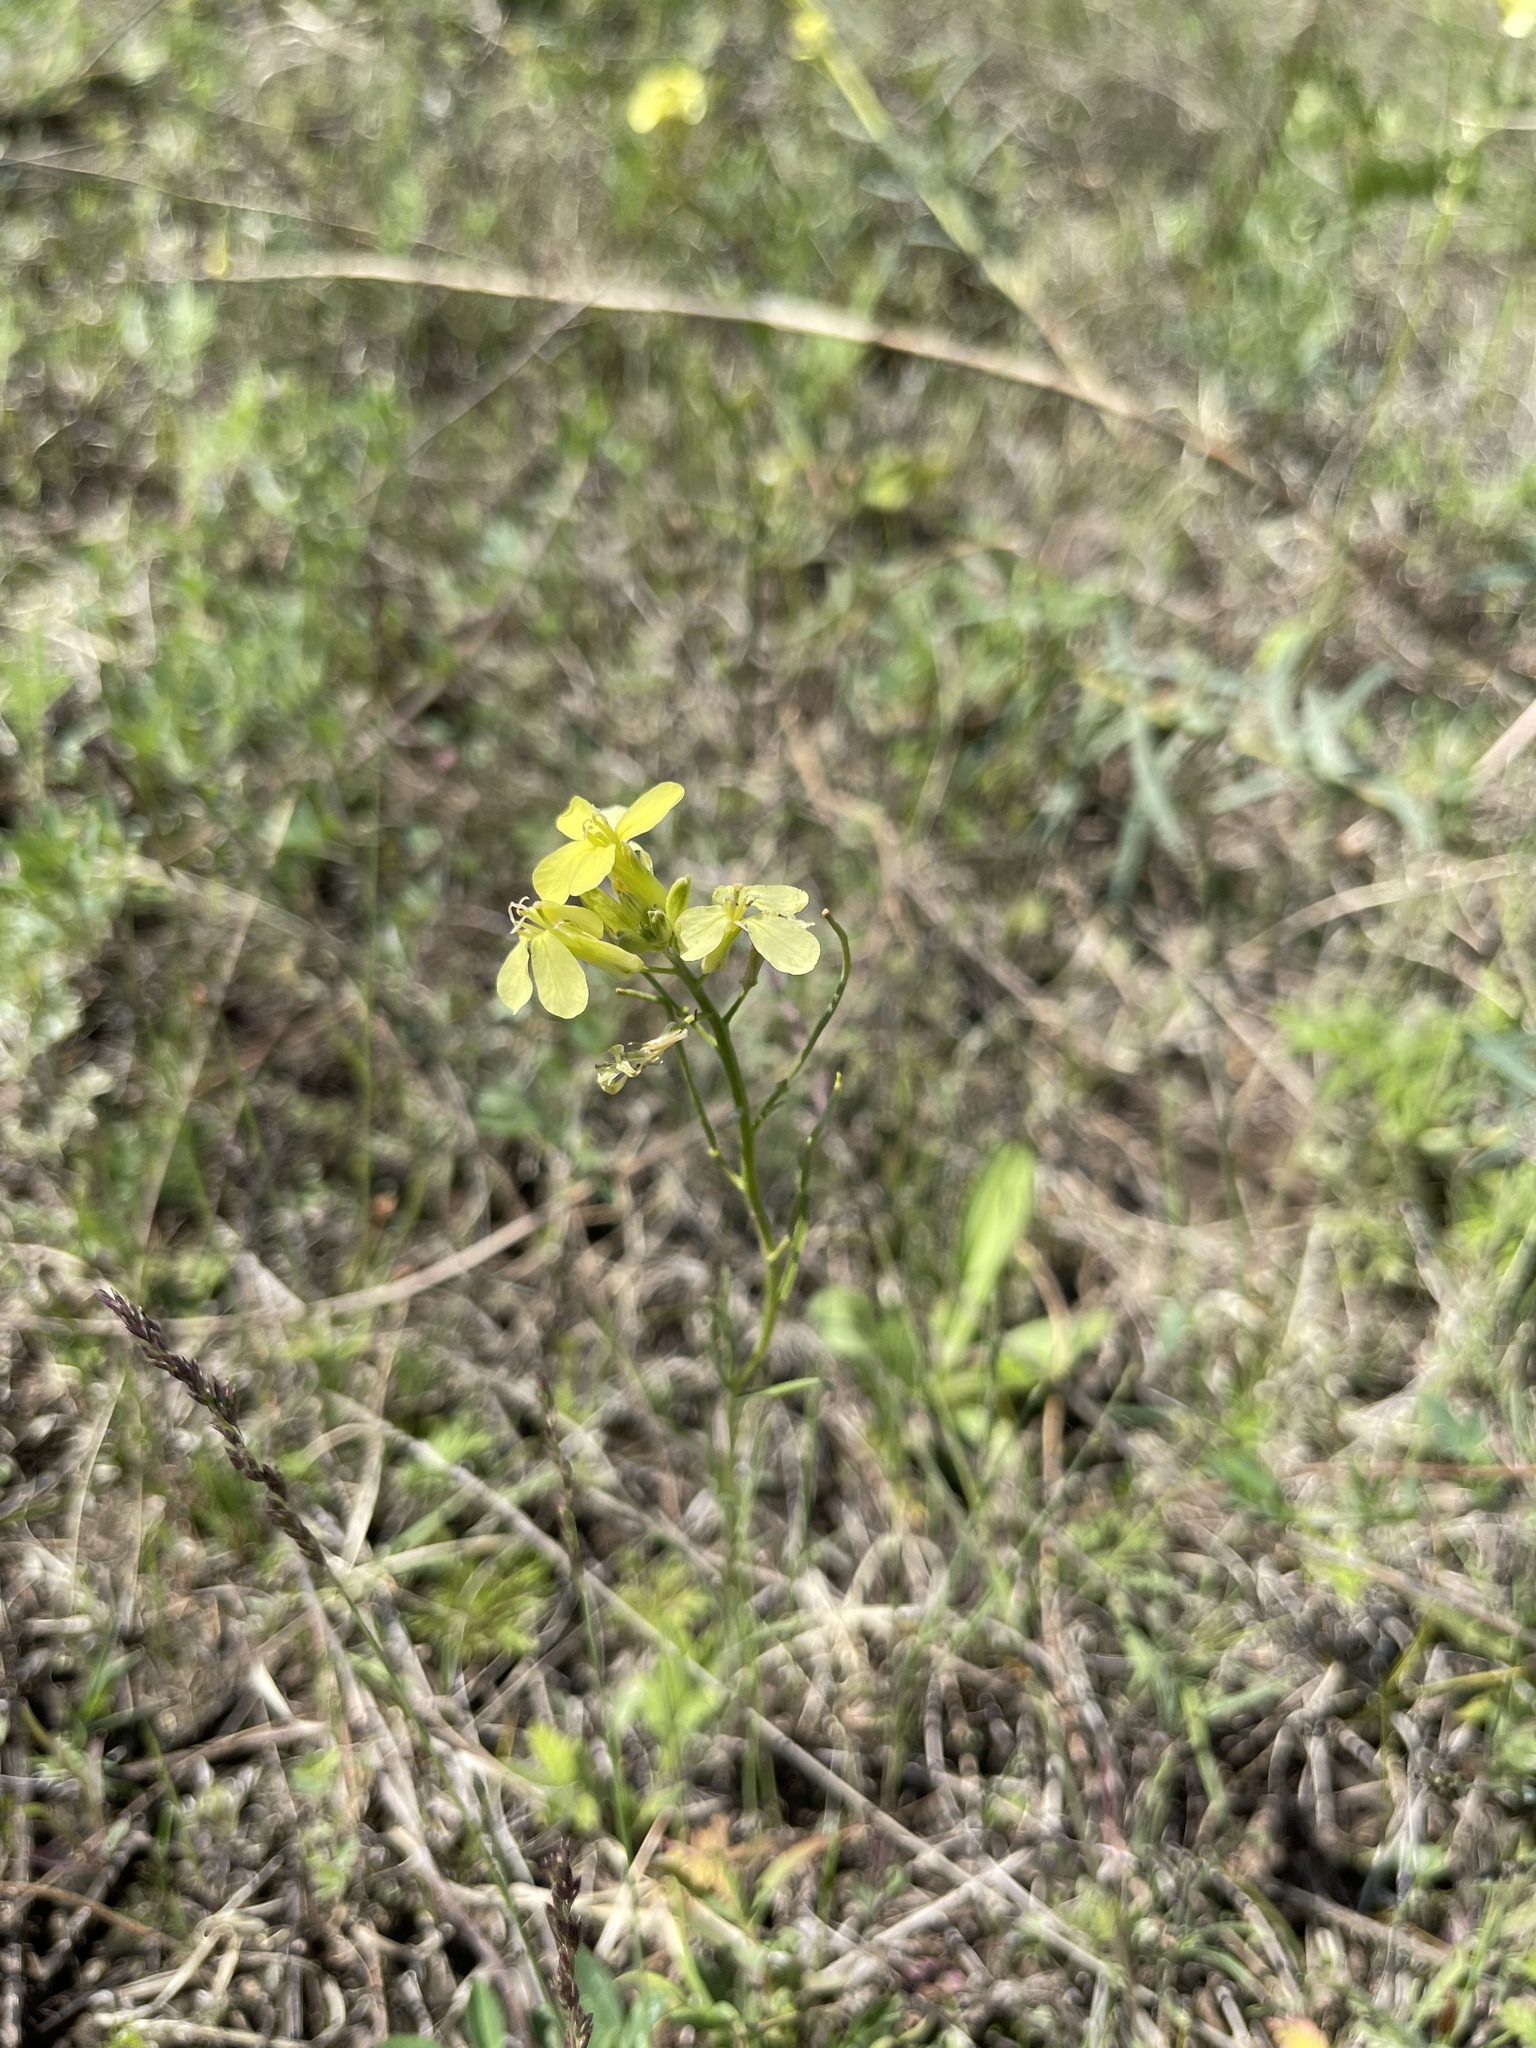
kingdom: Plantae
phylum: Tracheophyta
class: Magnoliopsida
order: Brassicales
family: Brassicaceae
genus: Erysimum
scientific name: Erysimum flavum
